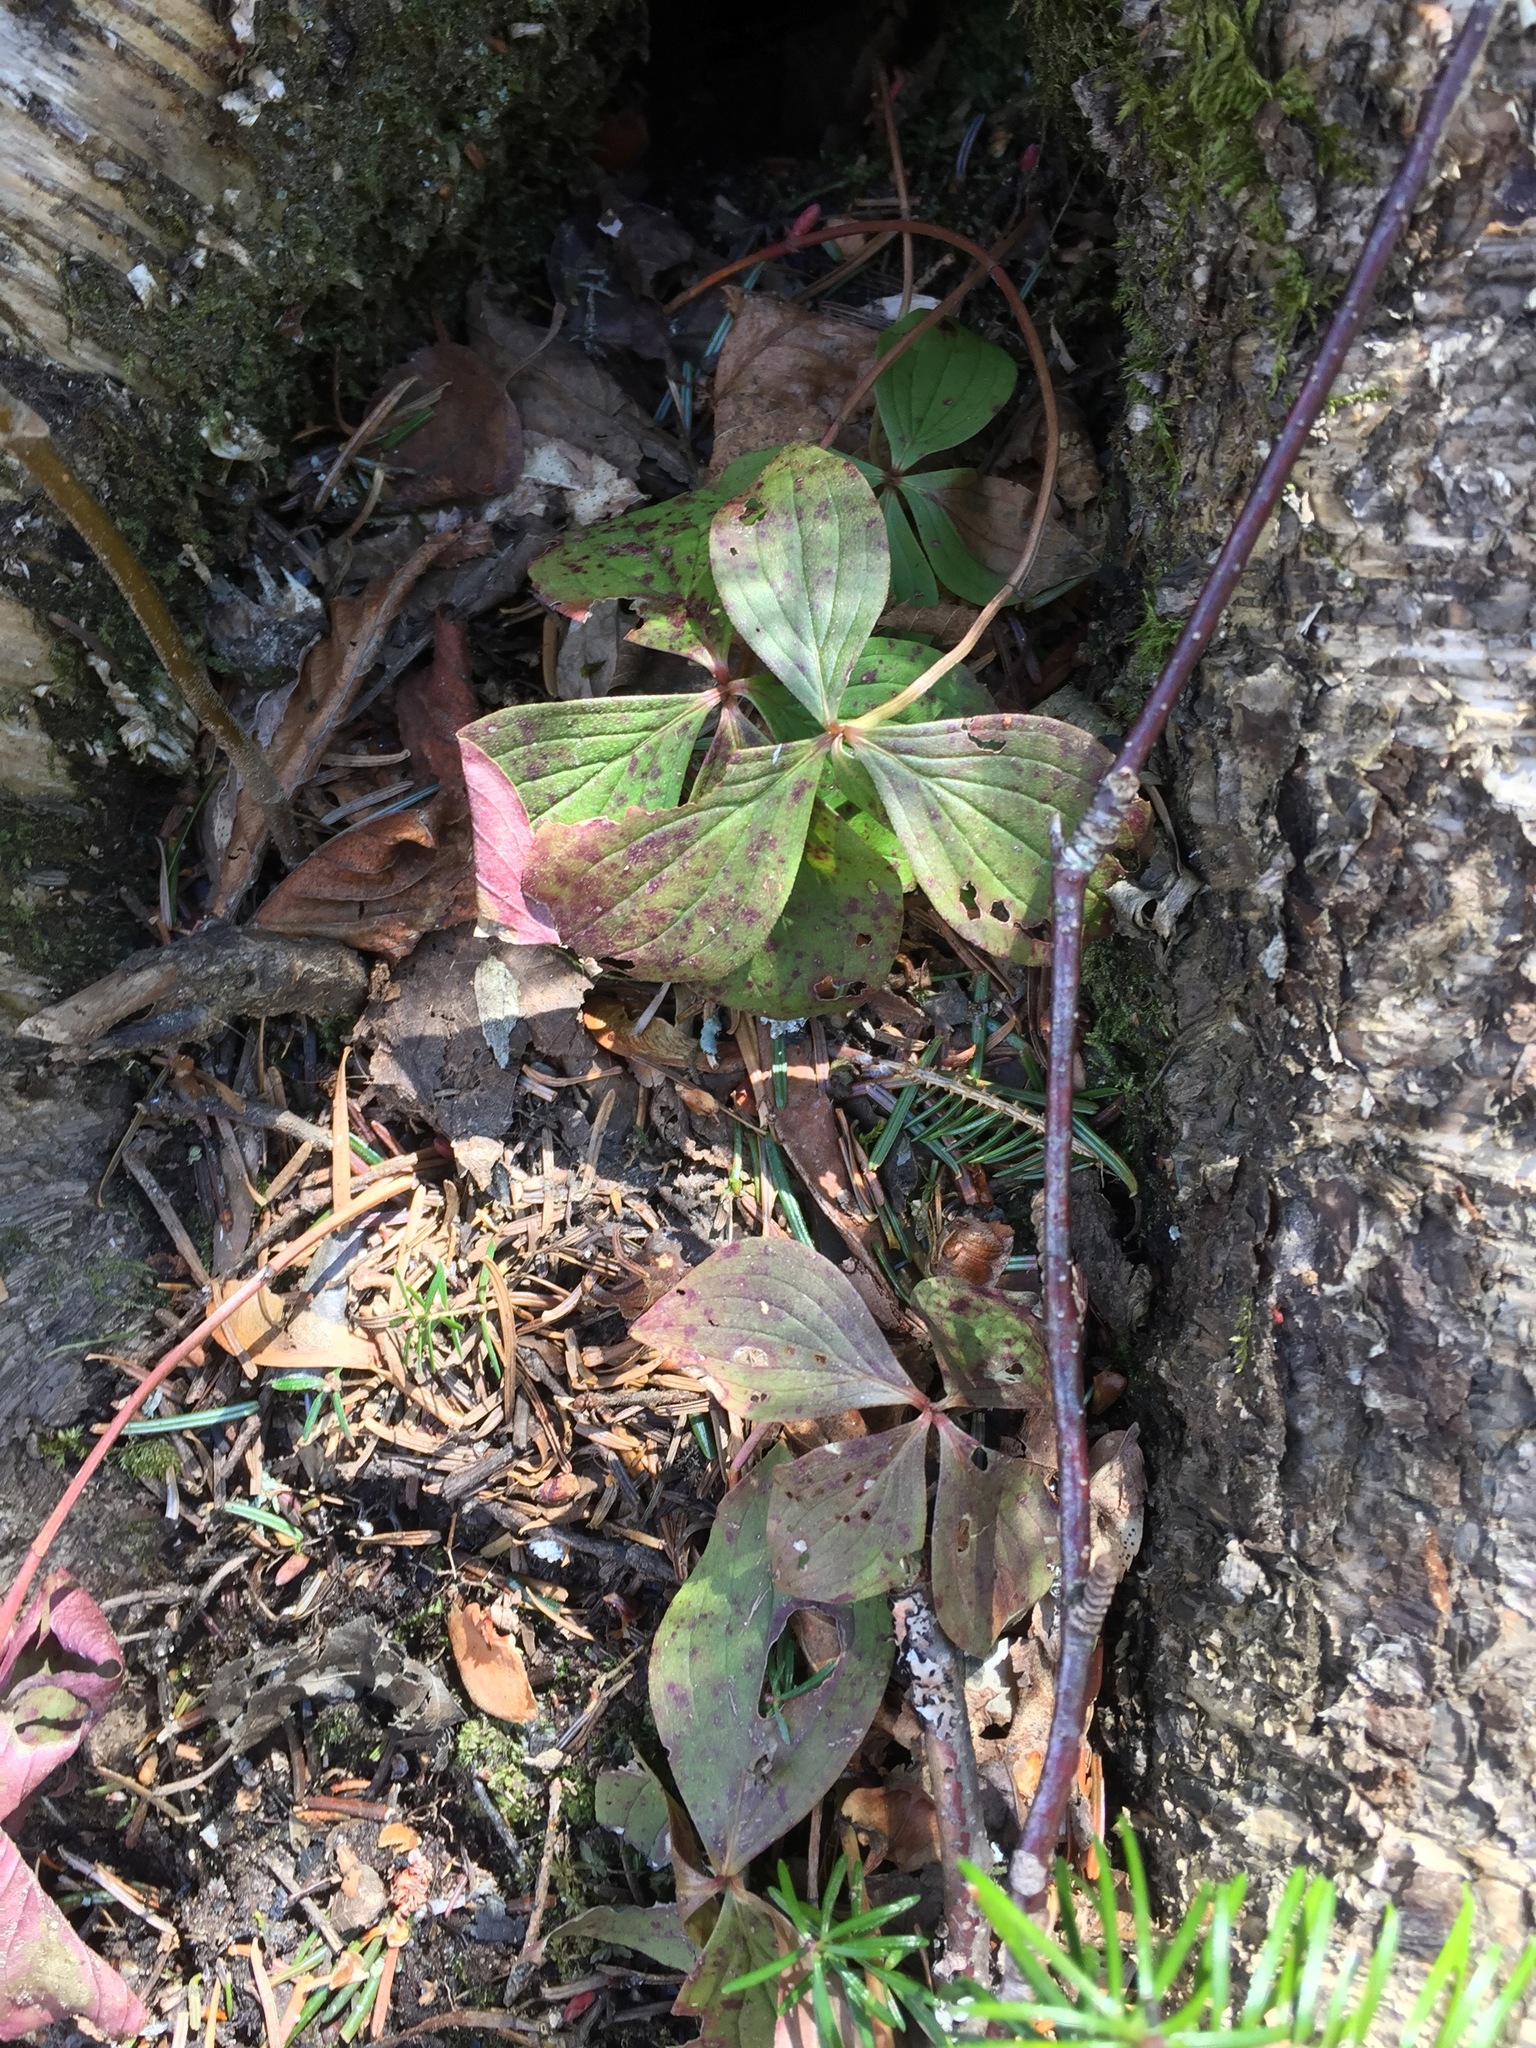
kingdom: Plantae
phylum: Tracheophyta
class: Magnoliopsida
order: Cornales
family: Cornaceae
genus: Cornus
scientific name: Cornus canadensis
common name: Creeping dogwood
